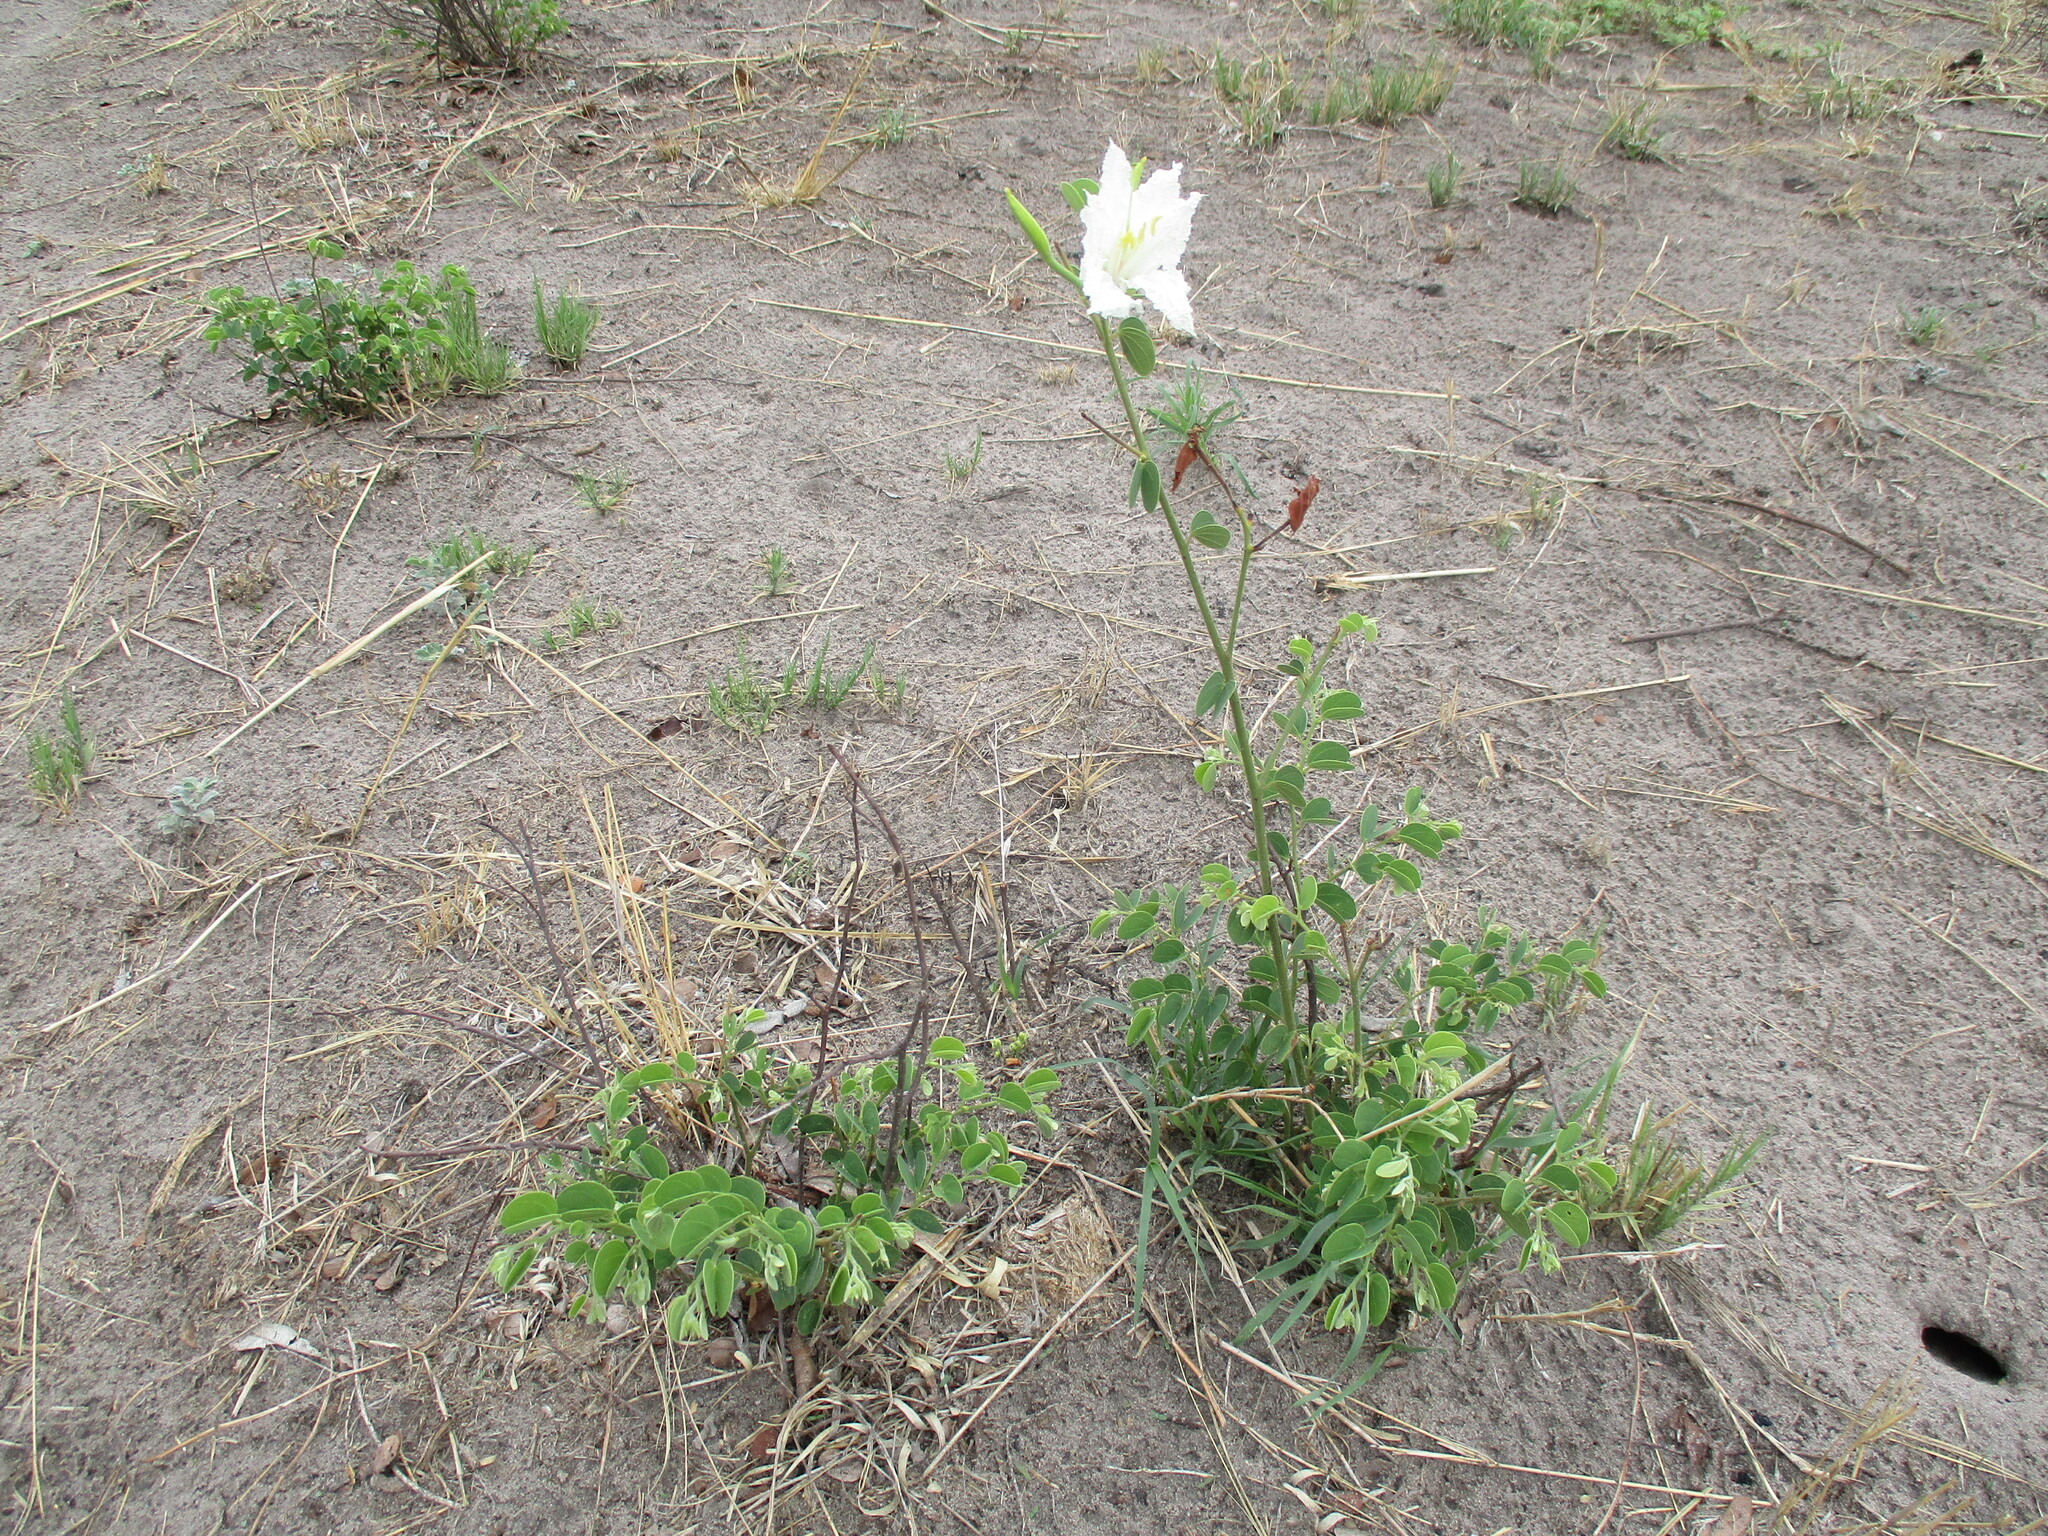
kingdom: Plantae
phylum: Tracheophyta
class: Magnoliopsida
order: Fabales
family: Fabaceae
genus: Bauhinia
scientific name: Bauhinia macrantha
